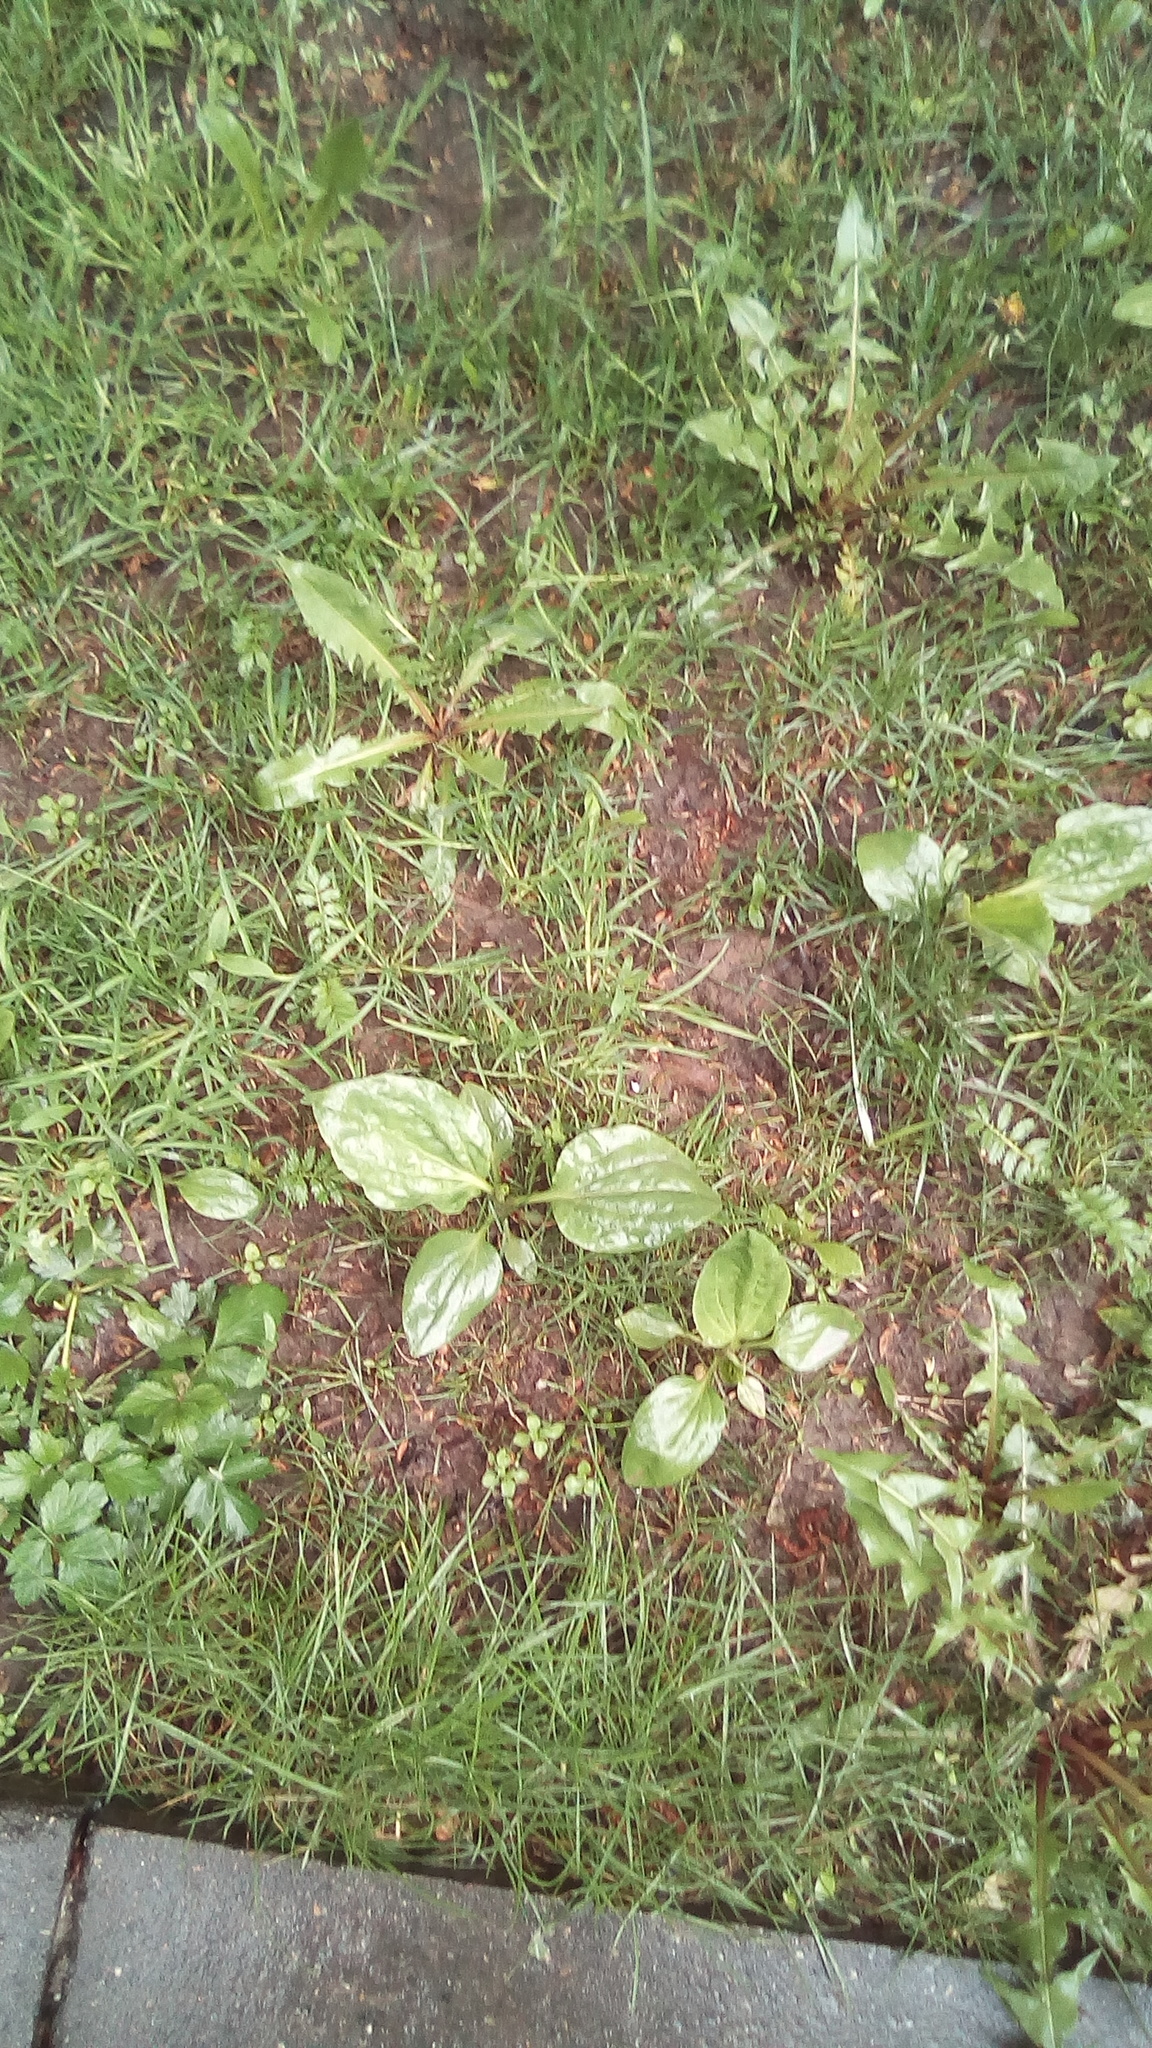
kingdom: Plantae
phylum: Tracheophyta
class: Magnoliopsida
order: Lamiales
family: Plantaginaceae
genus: Plantago
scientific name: Plantago major
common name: Common plantain
